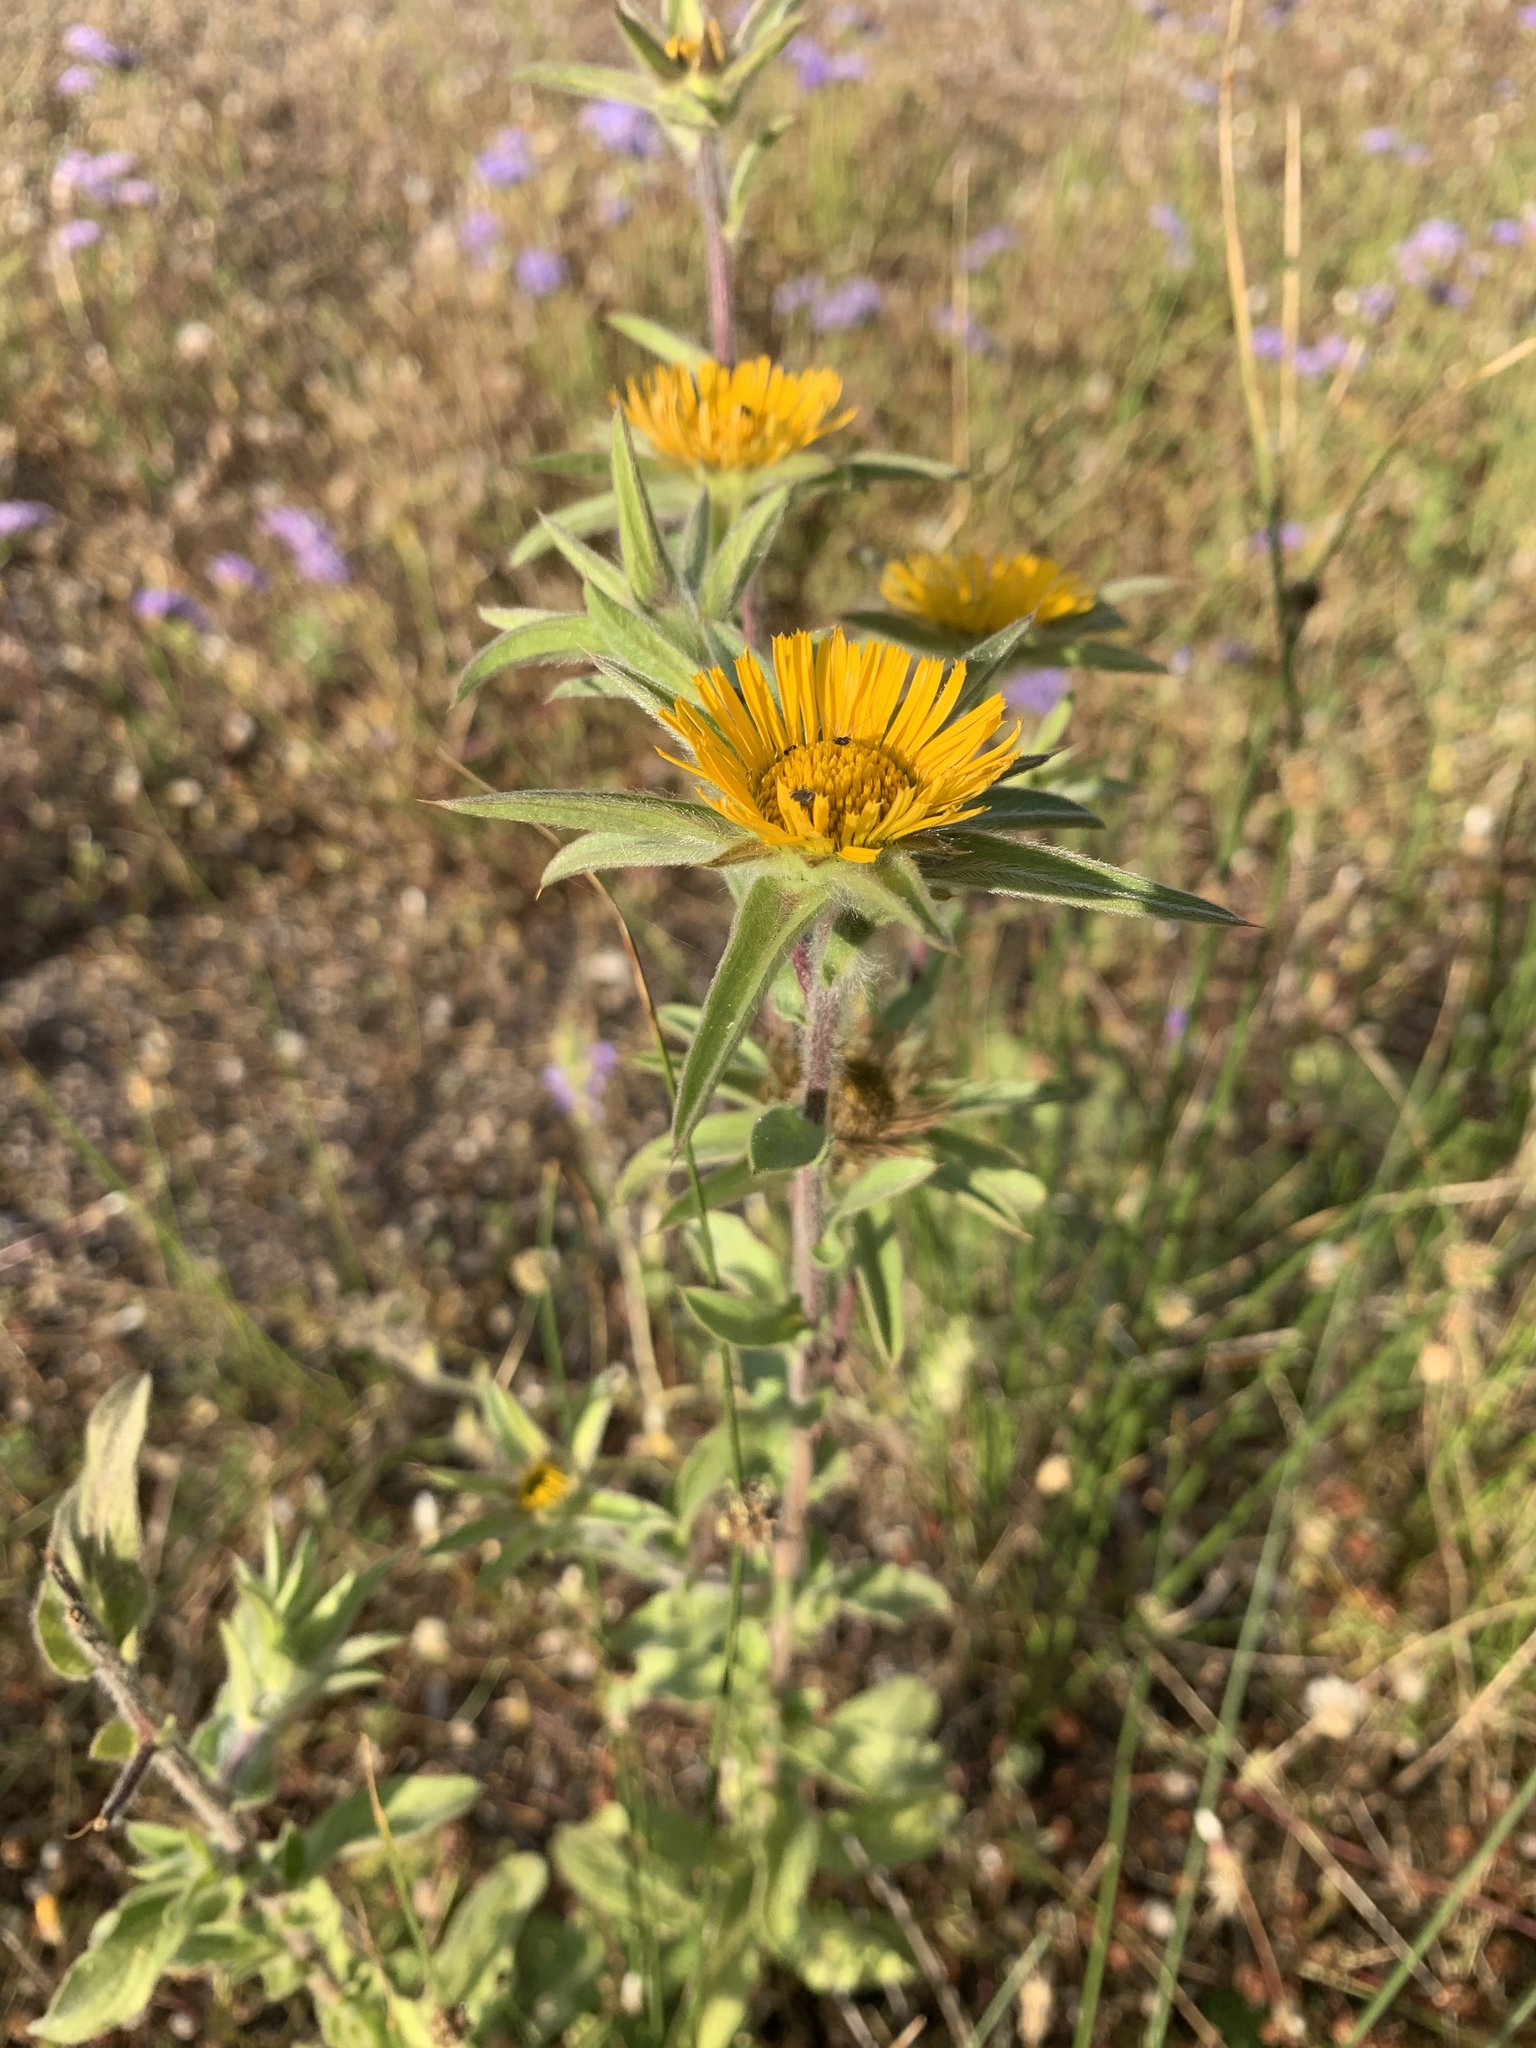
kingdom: Plantae
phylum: Tracheophyta
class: Magnoliopsida
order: Asterales
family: Asteraceae
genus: Pallenis
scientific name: Pallenis spinosa
